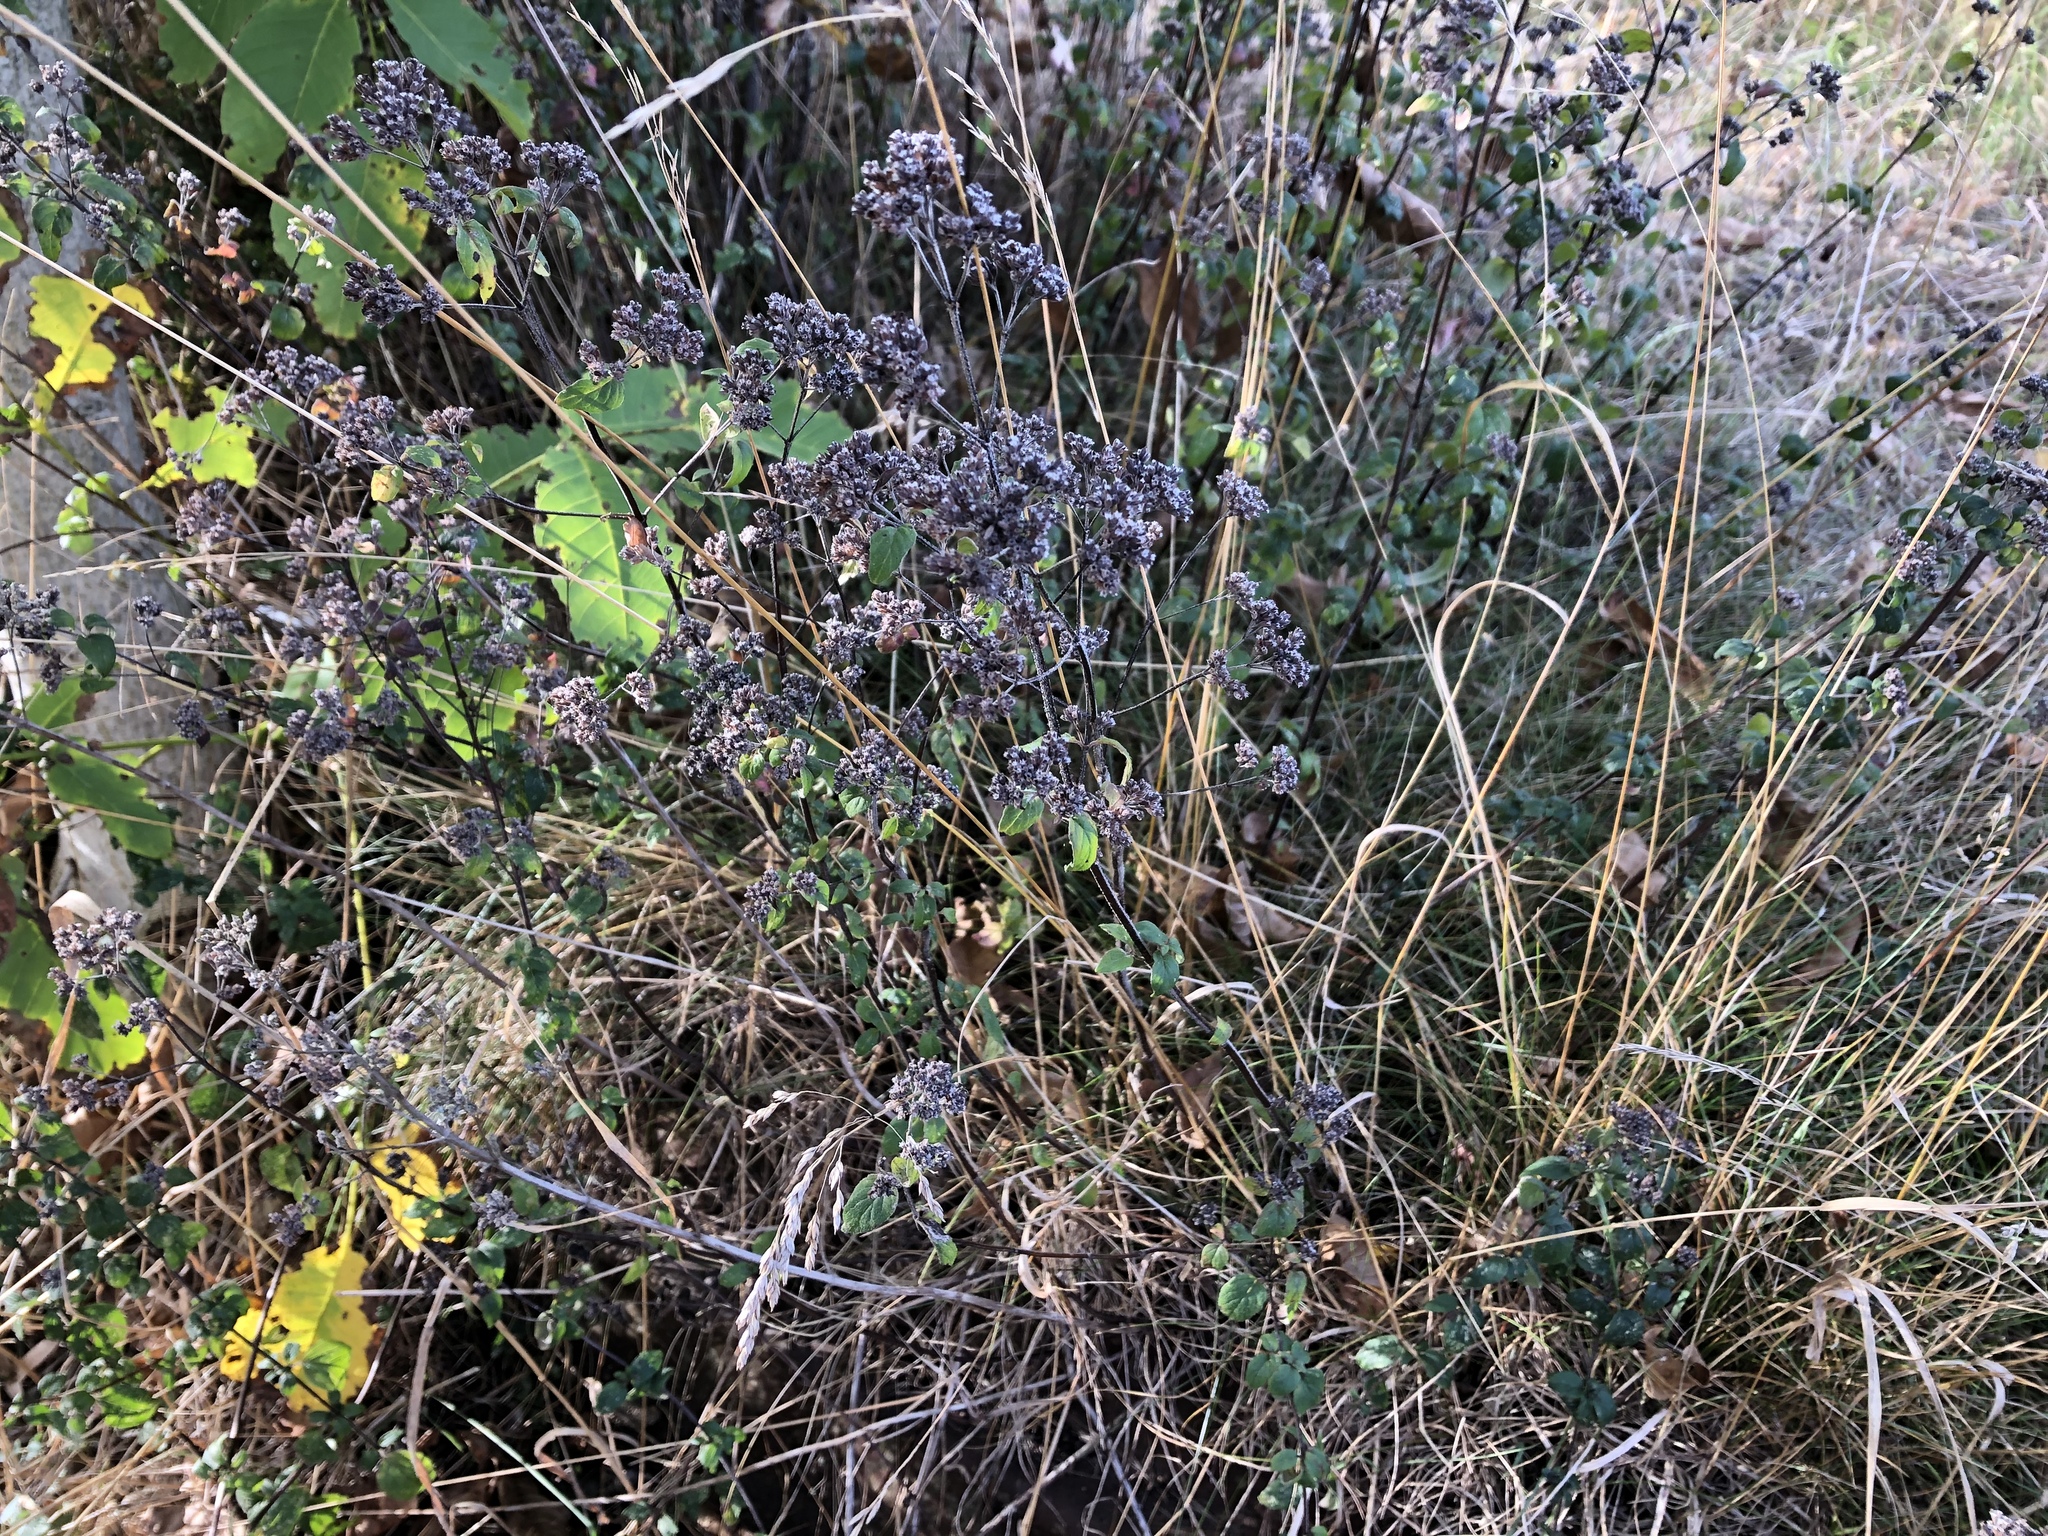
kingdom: Plantae
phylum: Tracheophyta
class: Magnoliopsida
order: Lamiales
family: Lamiaceae
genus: Origanum
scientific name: Origanum vulgare
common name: Wild marjoram
